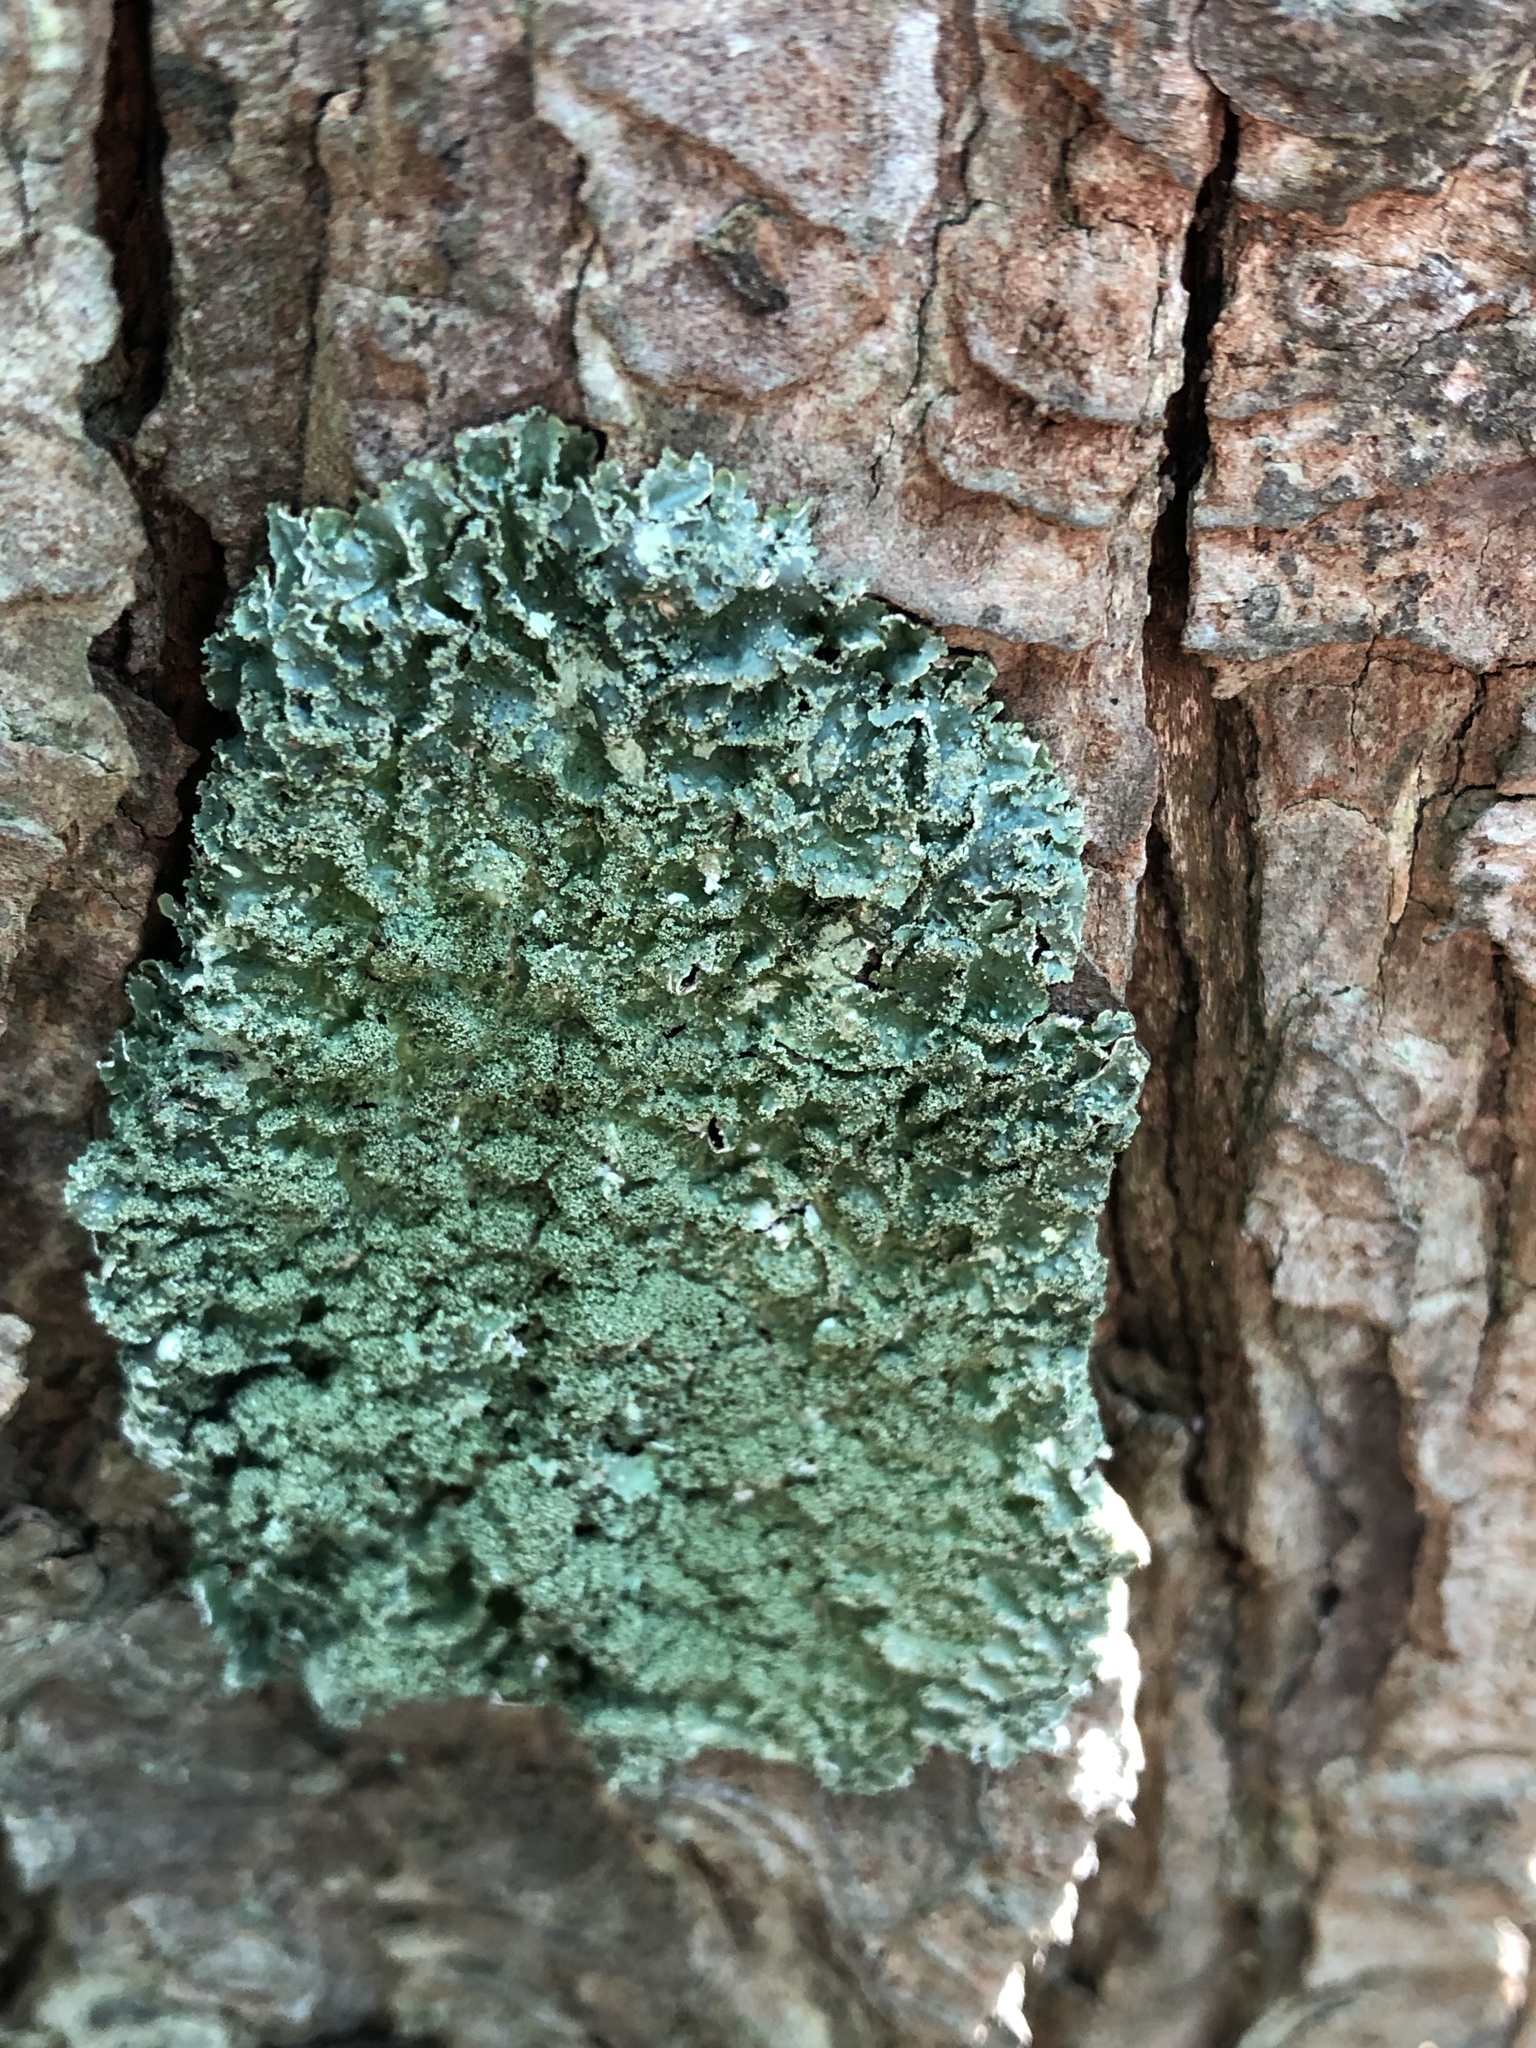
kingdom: Fungi
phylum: Ascomycota
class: Lecanoromycetes
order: Lecanorales
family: Parmeliaceae
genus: Punctelia
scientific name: Punctelia rudecta
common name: Rough speckled shield lichen
